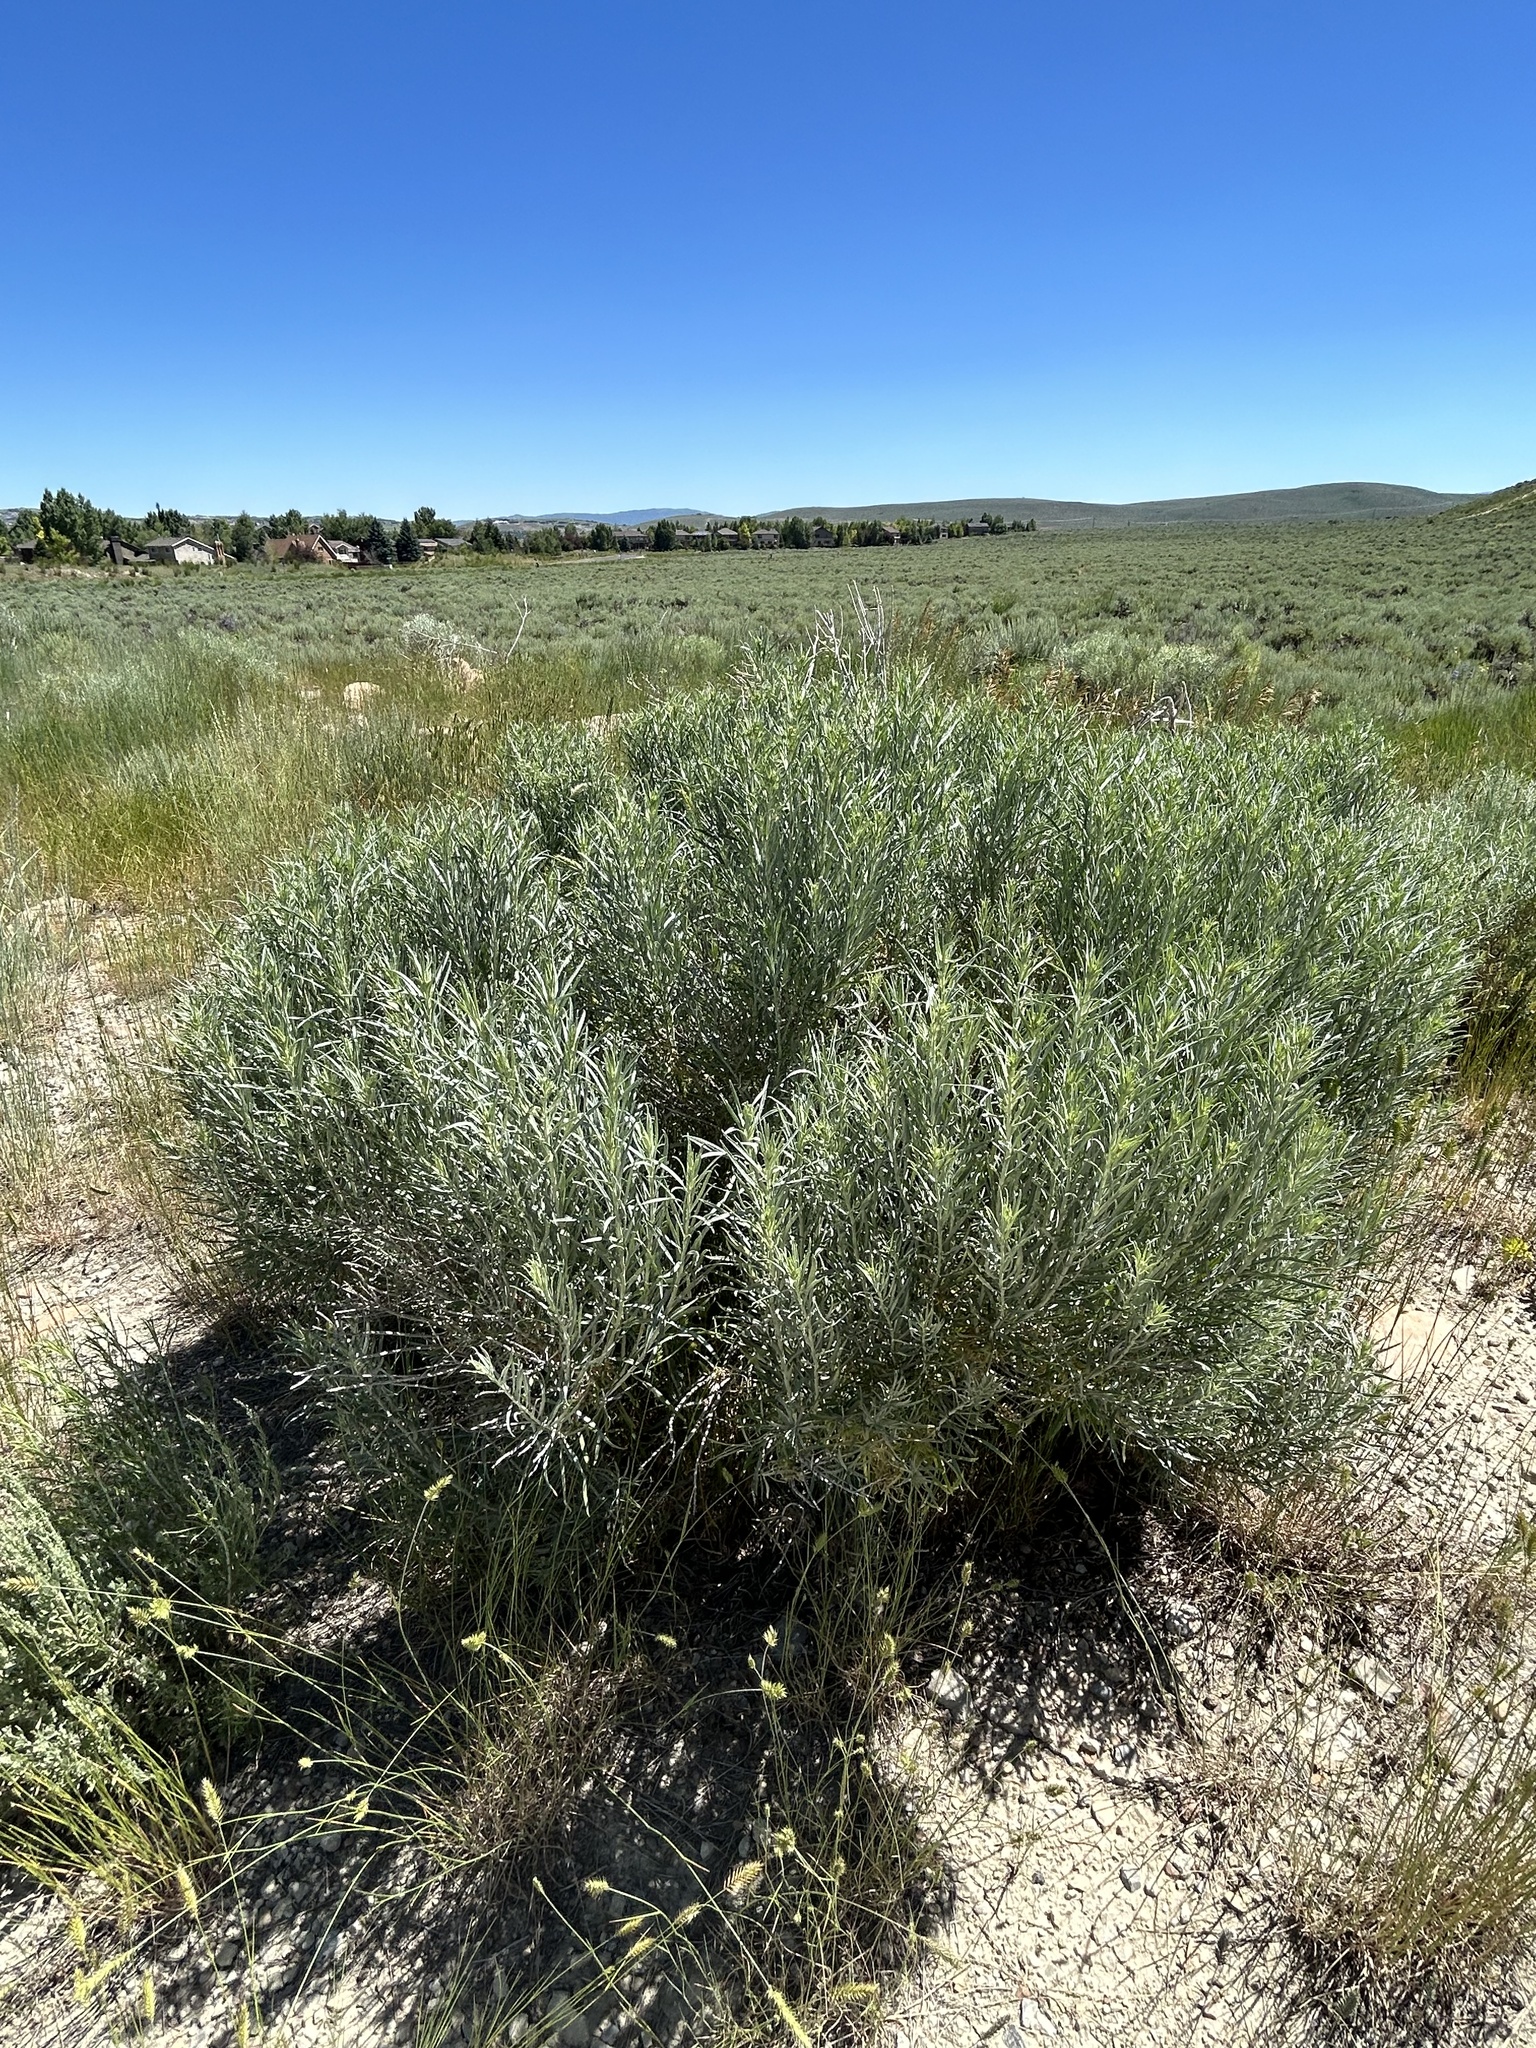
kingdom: Plantae
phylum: Tracheophyta
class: Magnoliopsida
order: Asterales
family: Asteraceae
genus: Ericameria
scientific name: Ericameria nauseosa
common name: Rubber rabbitbrush
